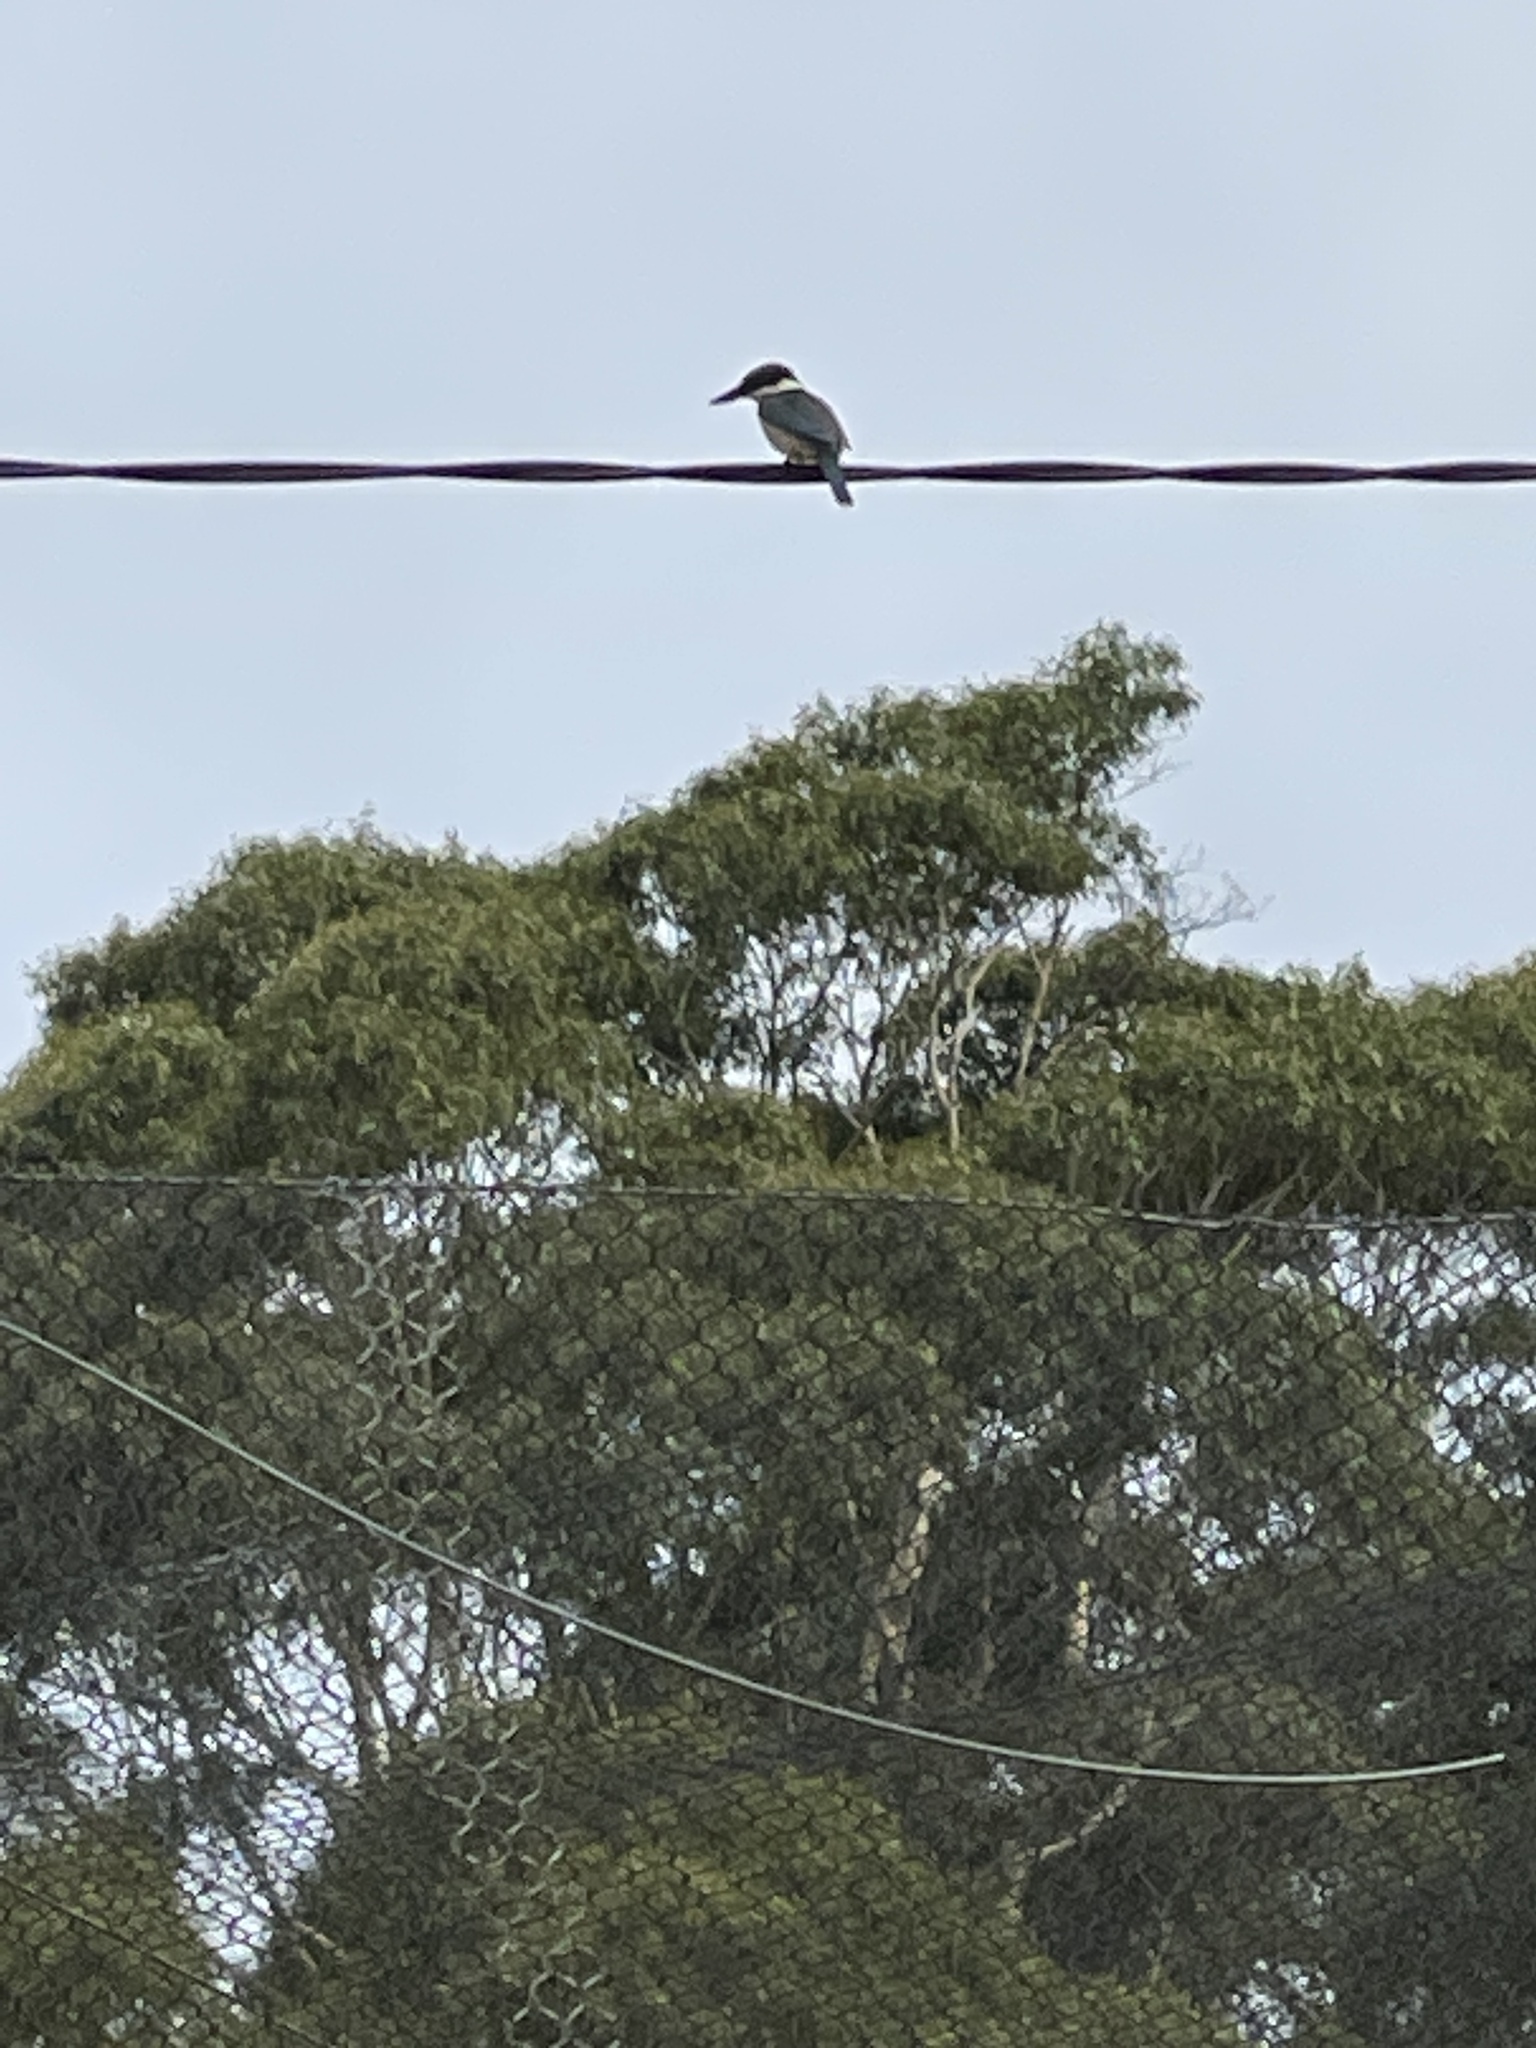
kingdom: Animalia
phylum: Chordata
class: Aves
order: Coraciiformes
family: Alcedinidae
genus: Todiramphus
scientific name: Todiramphus sanctus
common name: Sacred kingfisher
